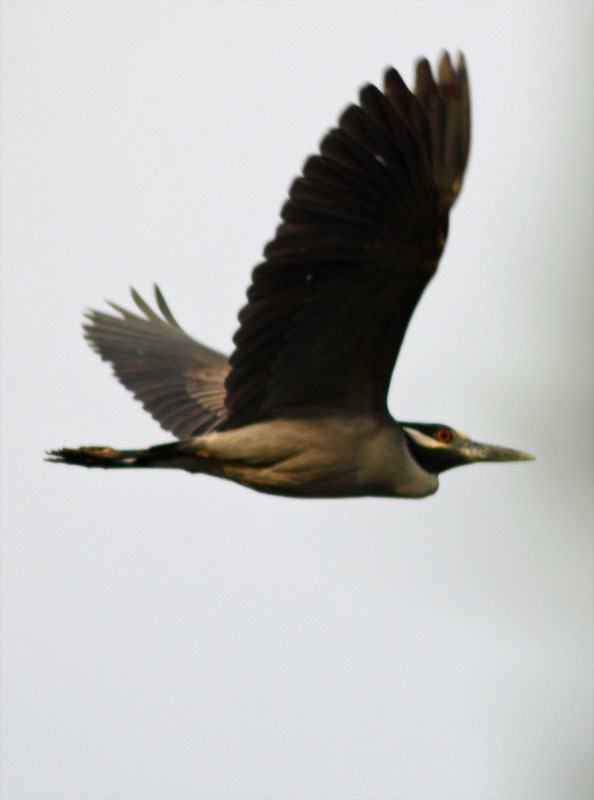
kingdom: Animalia
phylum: Chordata
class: Aves
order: Pelecaniformes
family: Ardeidae
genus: Nyctanassa
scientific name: Nyctanassa violacea
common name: Yellow-crowned night heron
